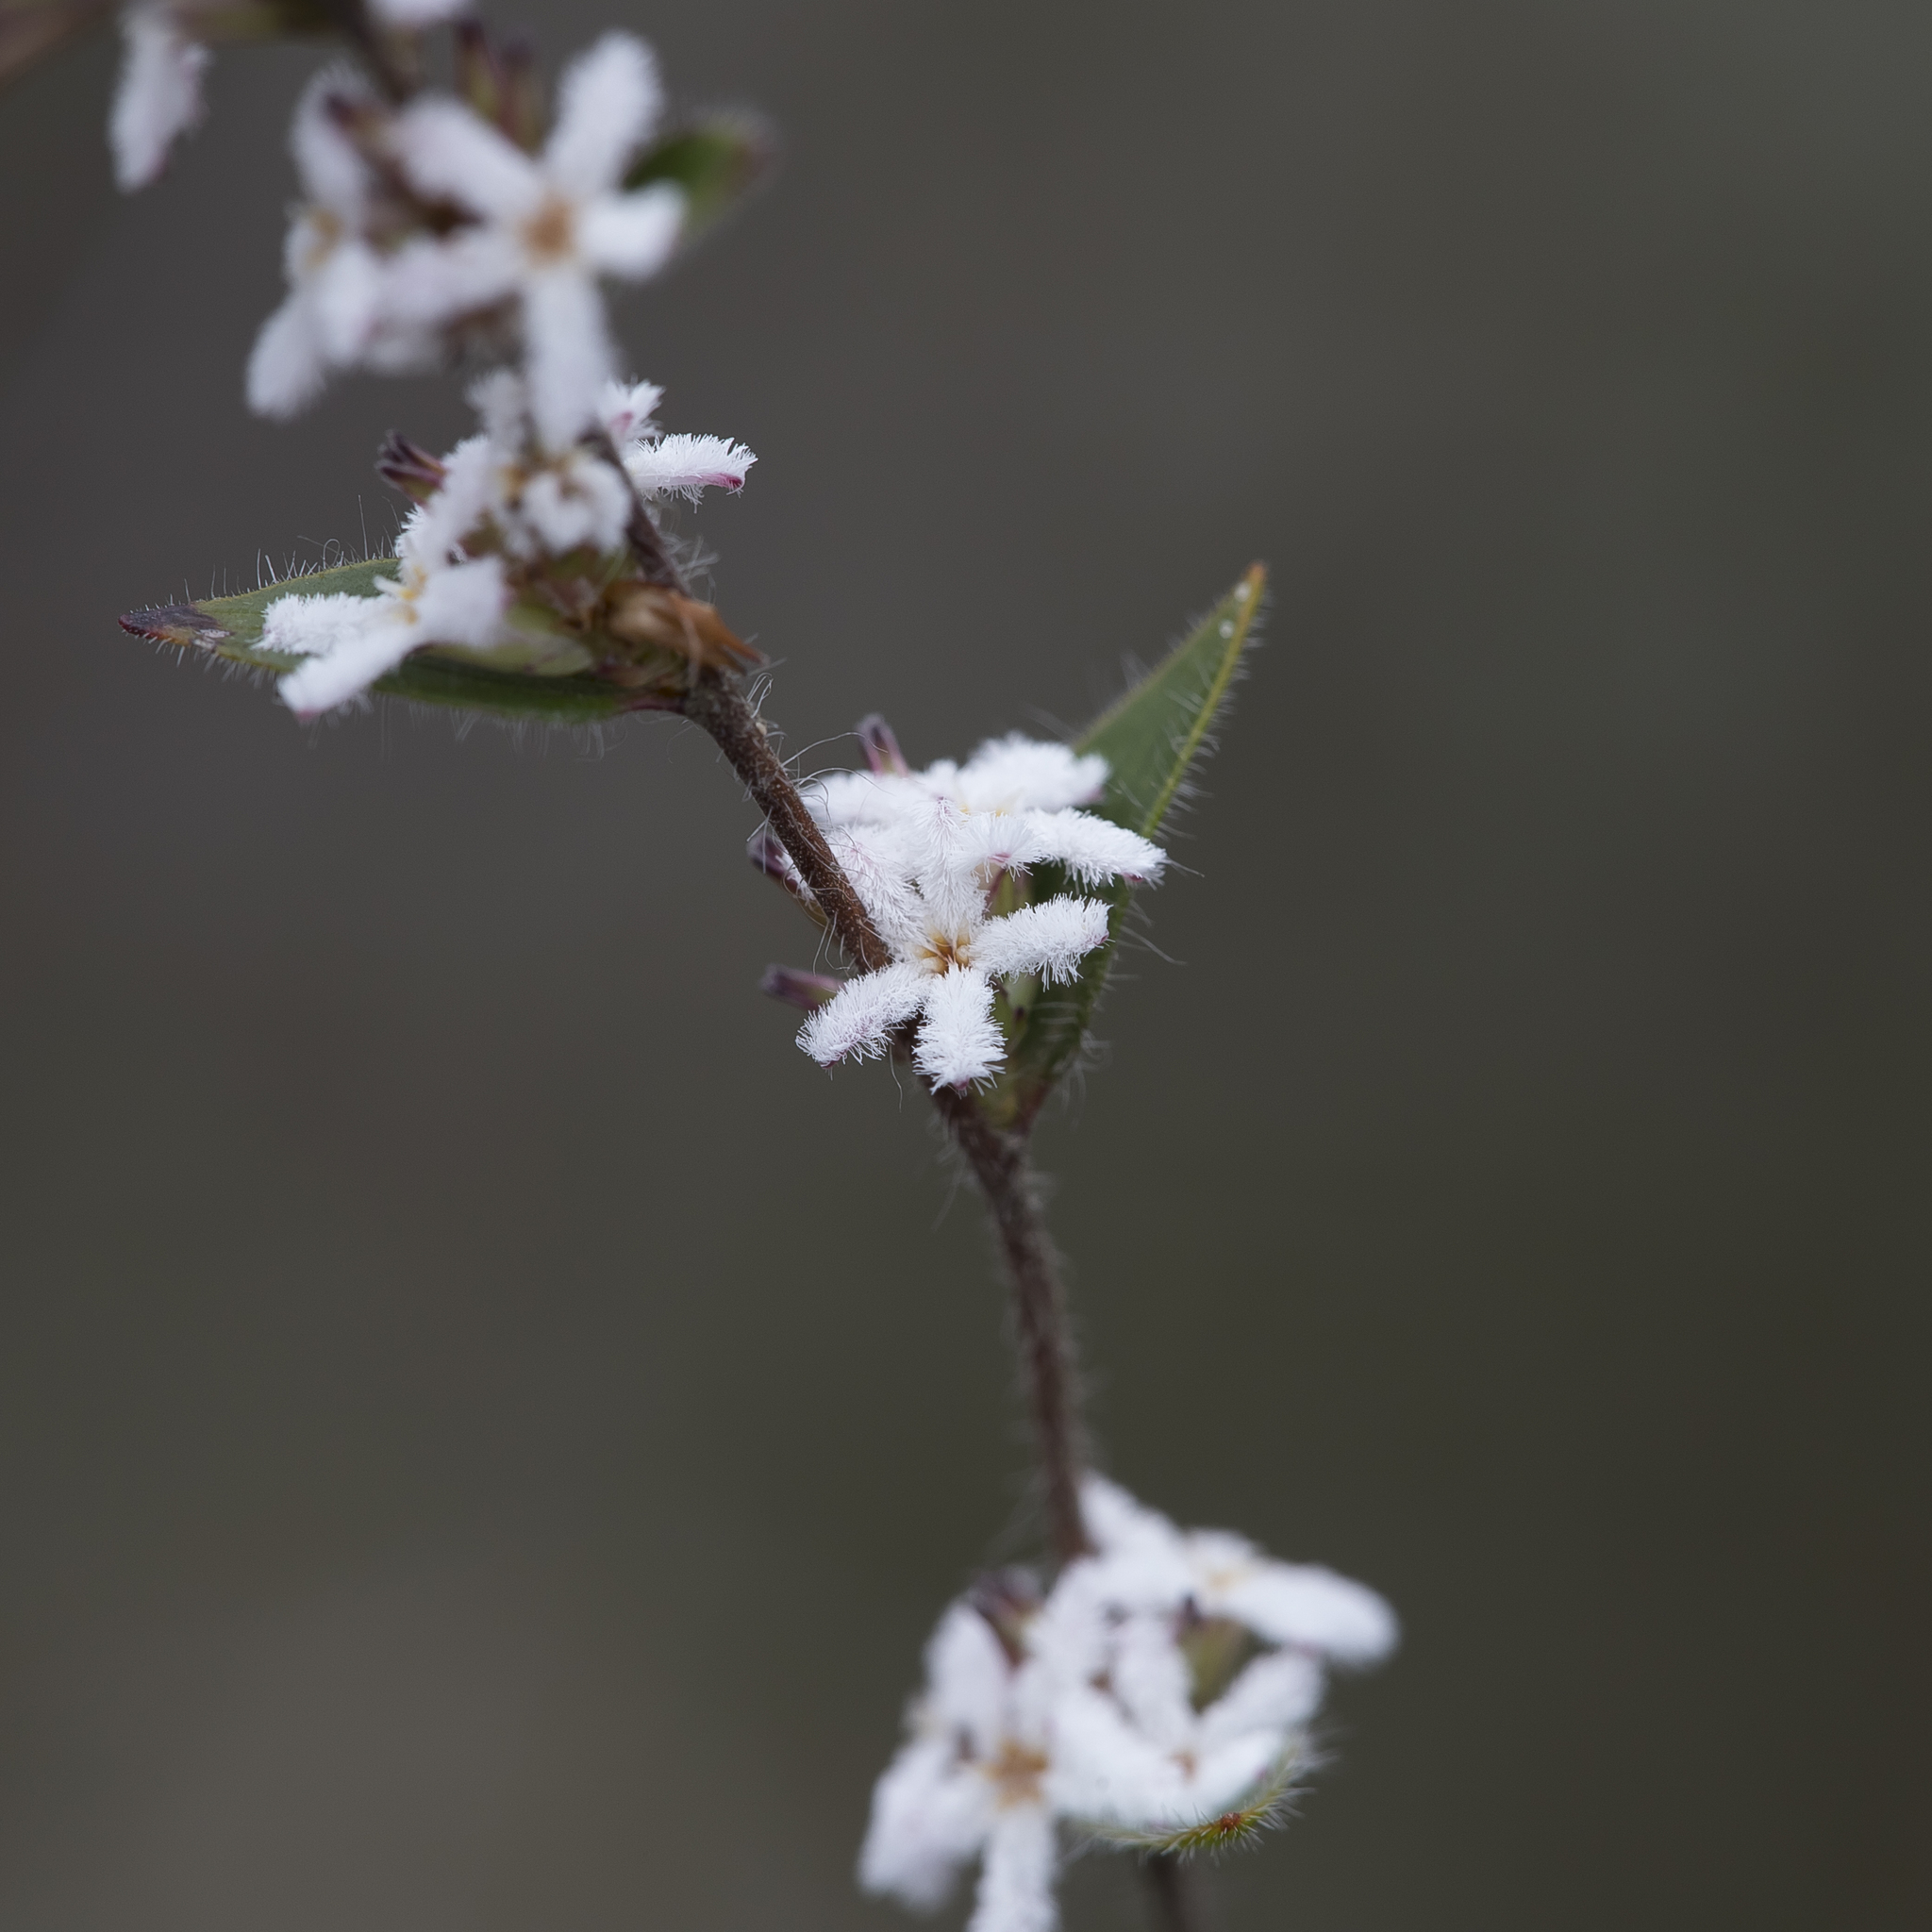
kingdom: Plantae
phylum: Tracheophyta
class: Magnoliopsida
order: Ericales
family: Ericaceae
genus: Leucopogon
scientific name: Leucopogon concurvus
